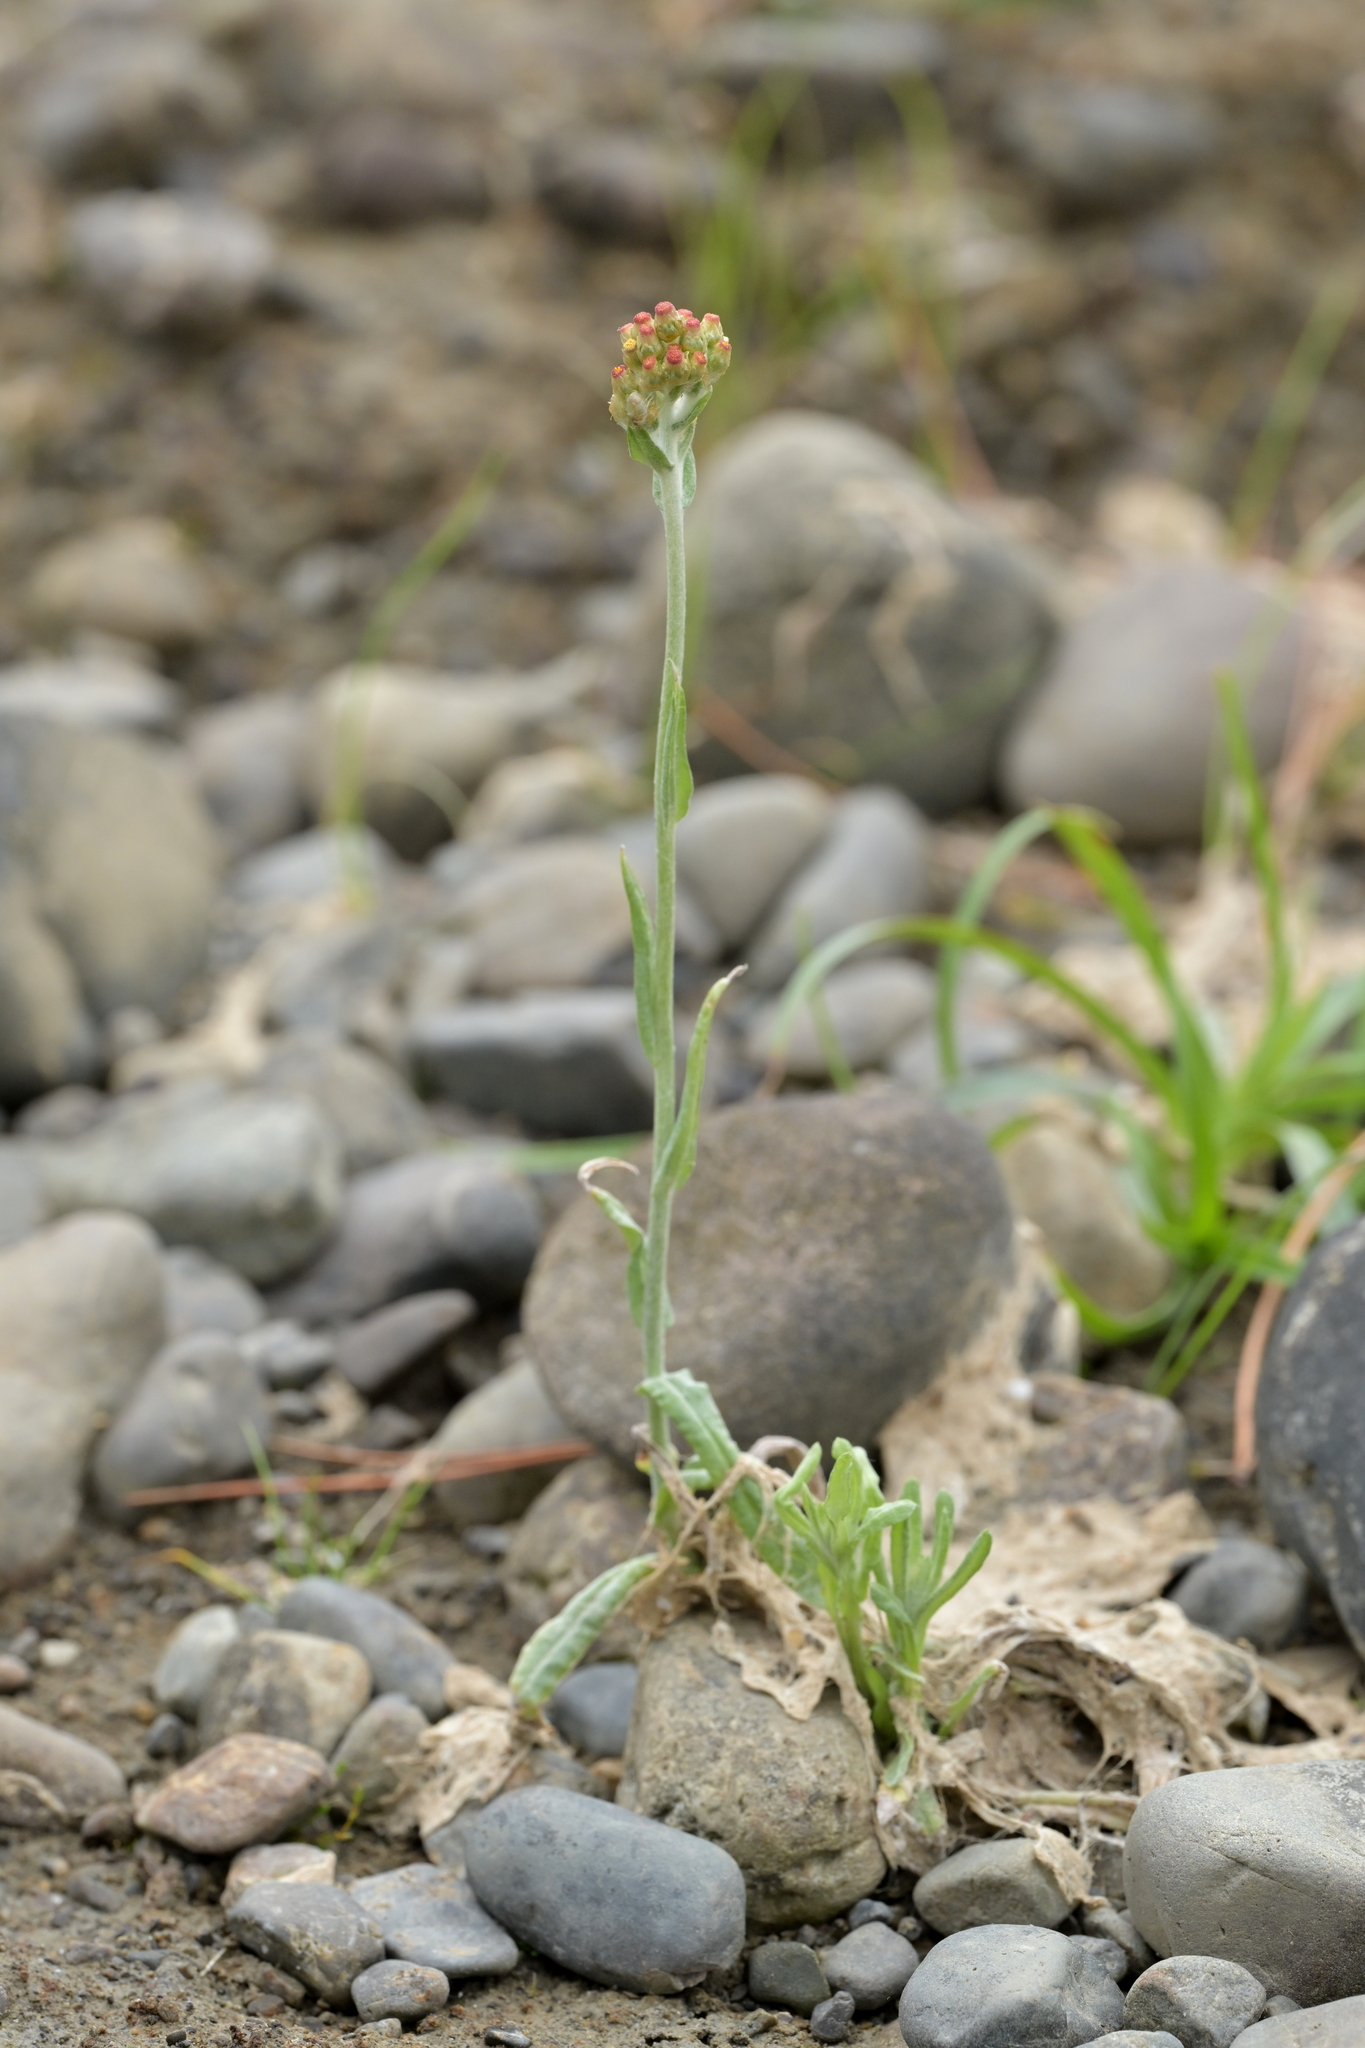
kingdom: Plantae
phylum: Tracheophyta
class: Magnoliopsida
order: Asterales
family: Asteraceae
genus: Helichrysum
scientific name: Helichrysum luteoalbum
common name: Daisy
